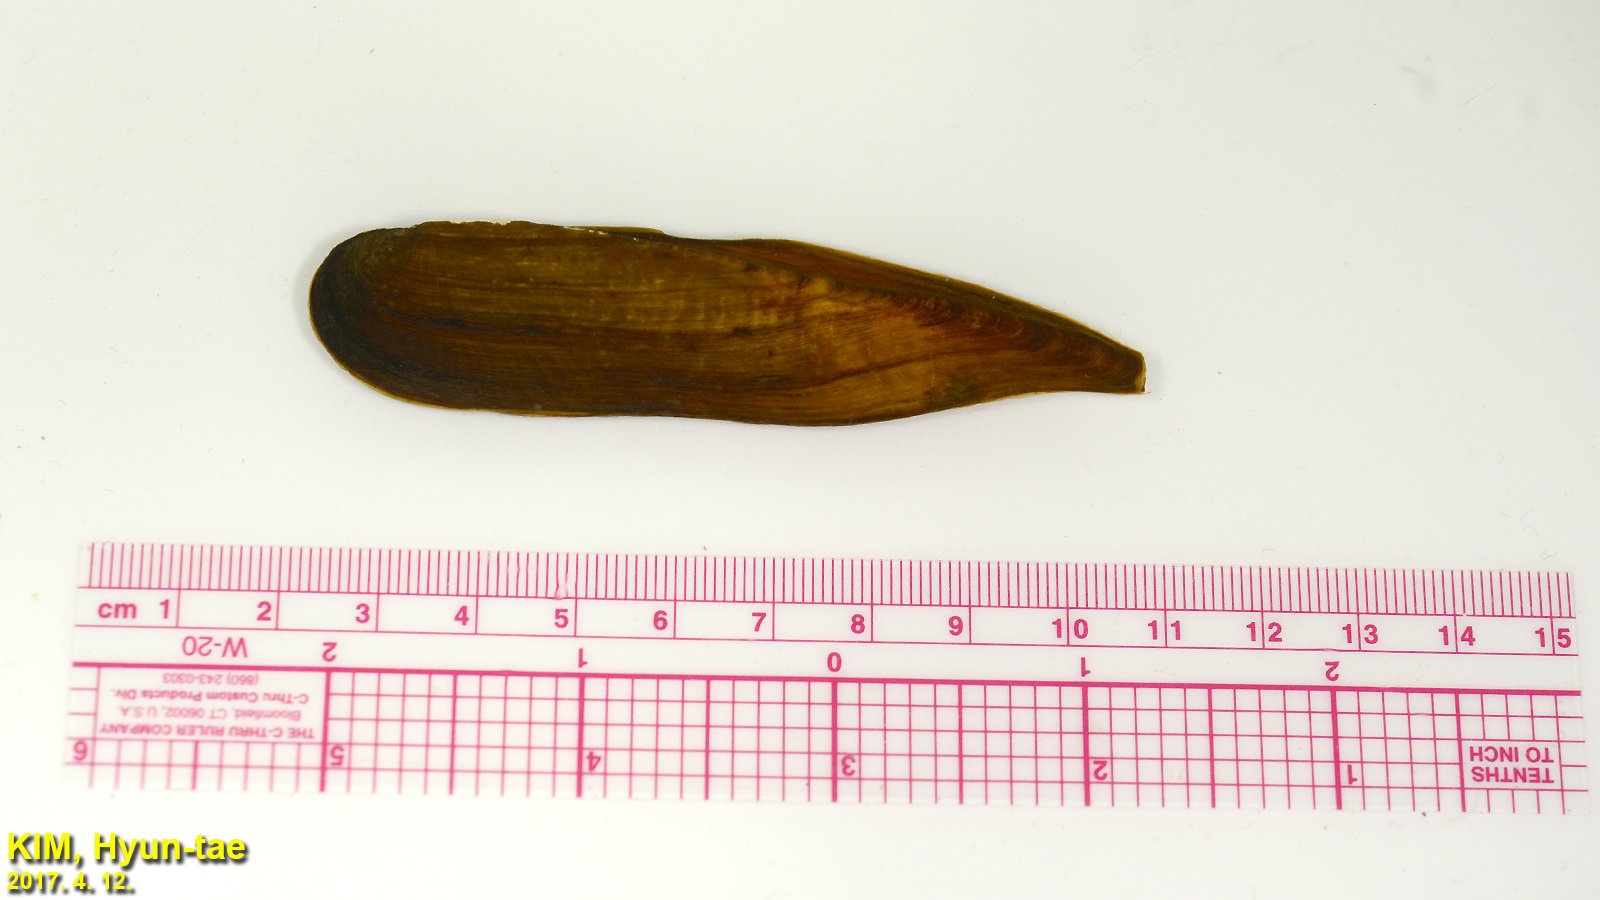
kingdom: Animalia
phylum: Mollusca
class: Bivalvia
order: Unionida
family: Unionidae
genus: Lanceolaria
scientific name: Lanceolaria acrorrhyncha
